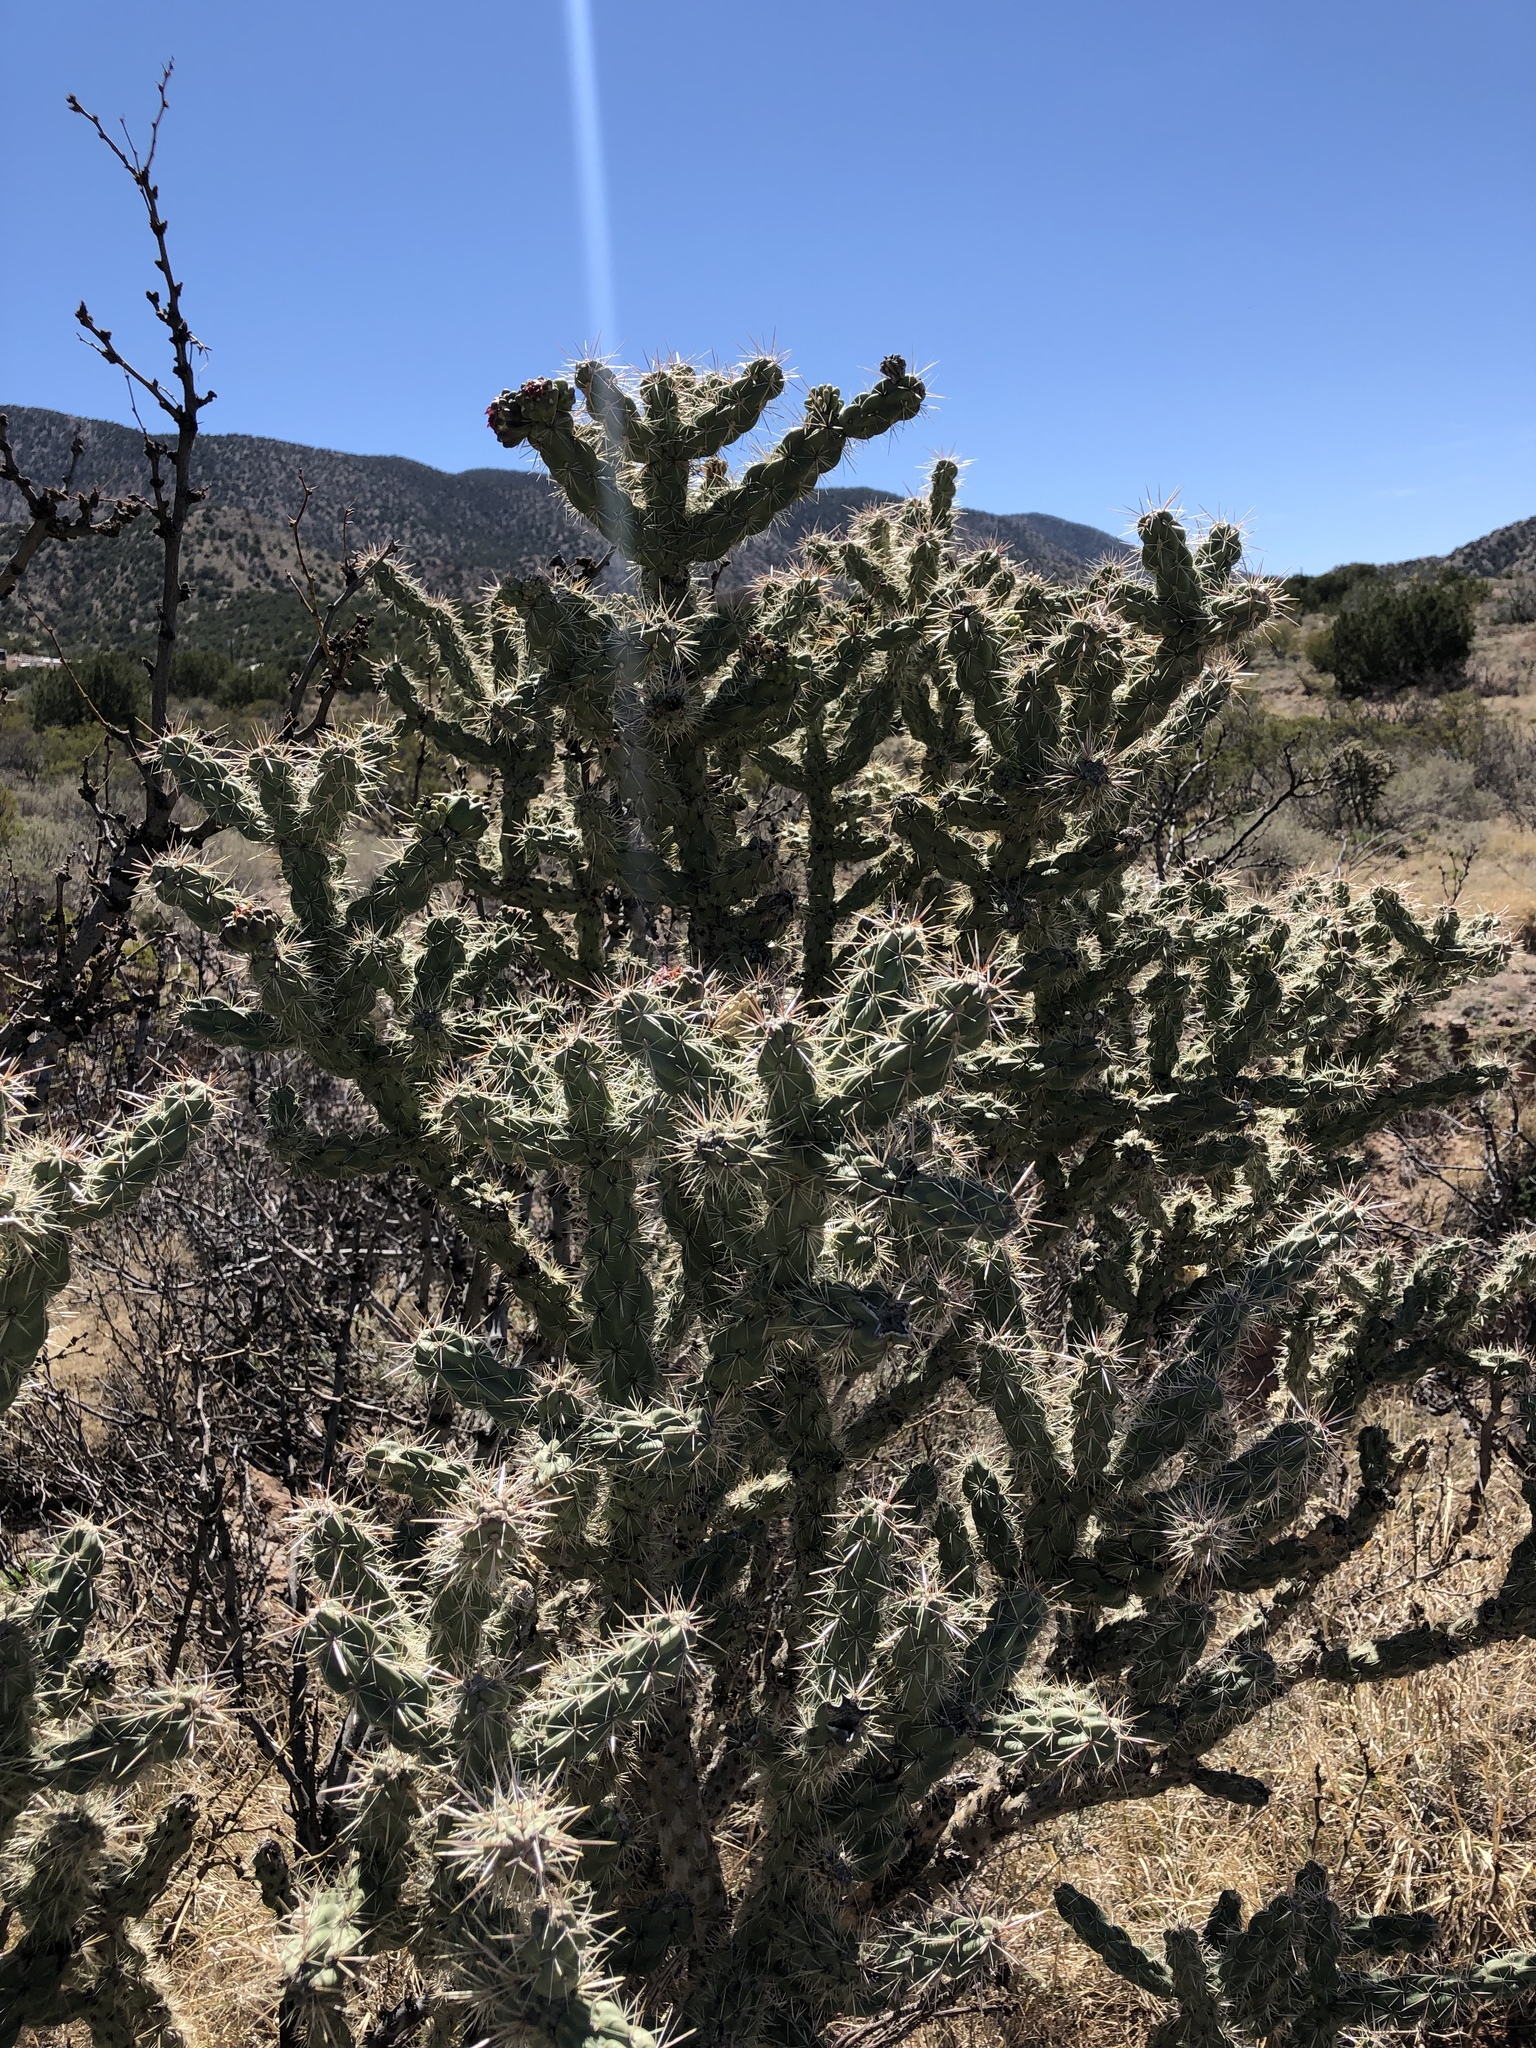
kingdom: Plantae
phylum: Tracheophyta
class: Magnoliopsida
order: Caryophyllales
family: Cactaceae
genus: Cylindropuntia
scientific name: Cylindropuntia imbricata
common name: Candelabrum cactus
